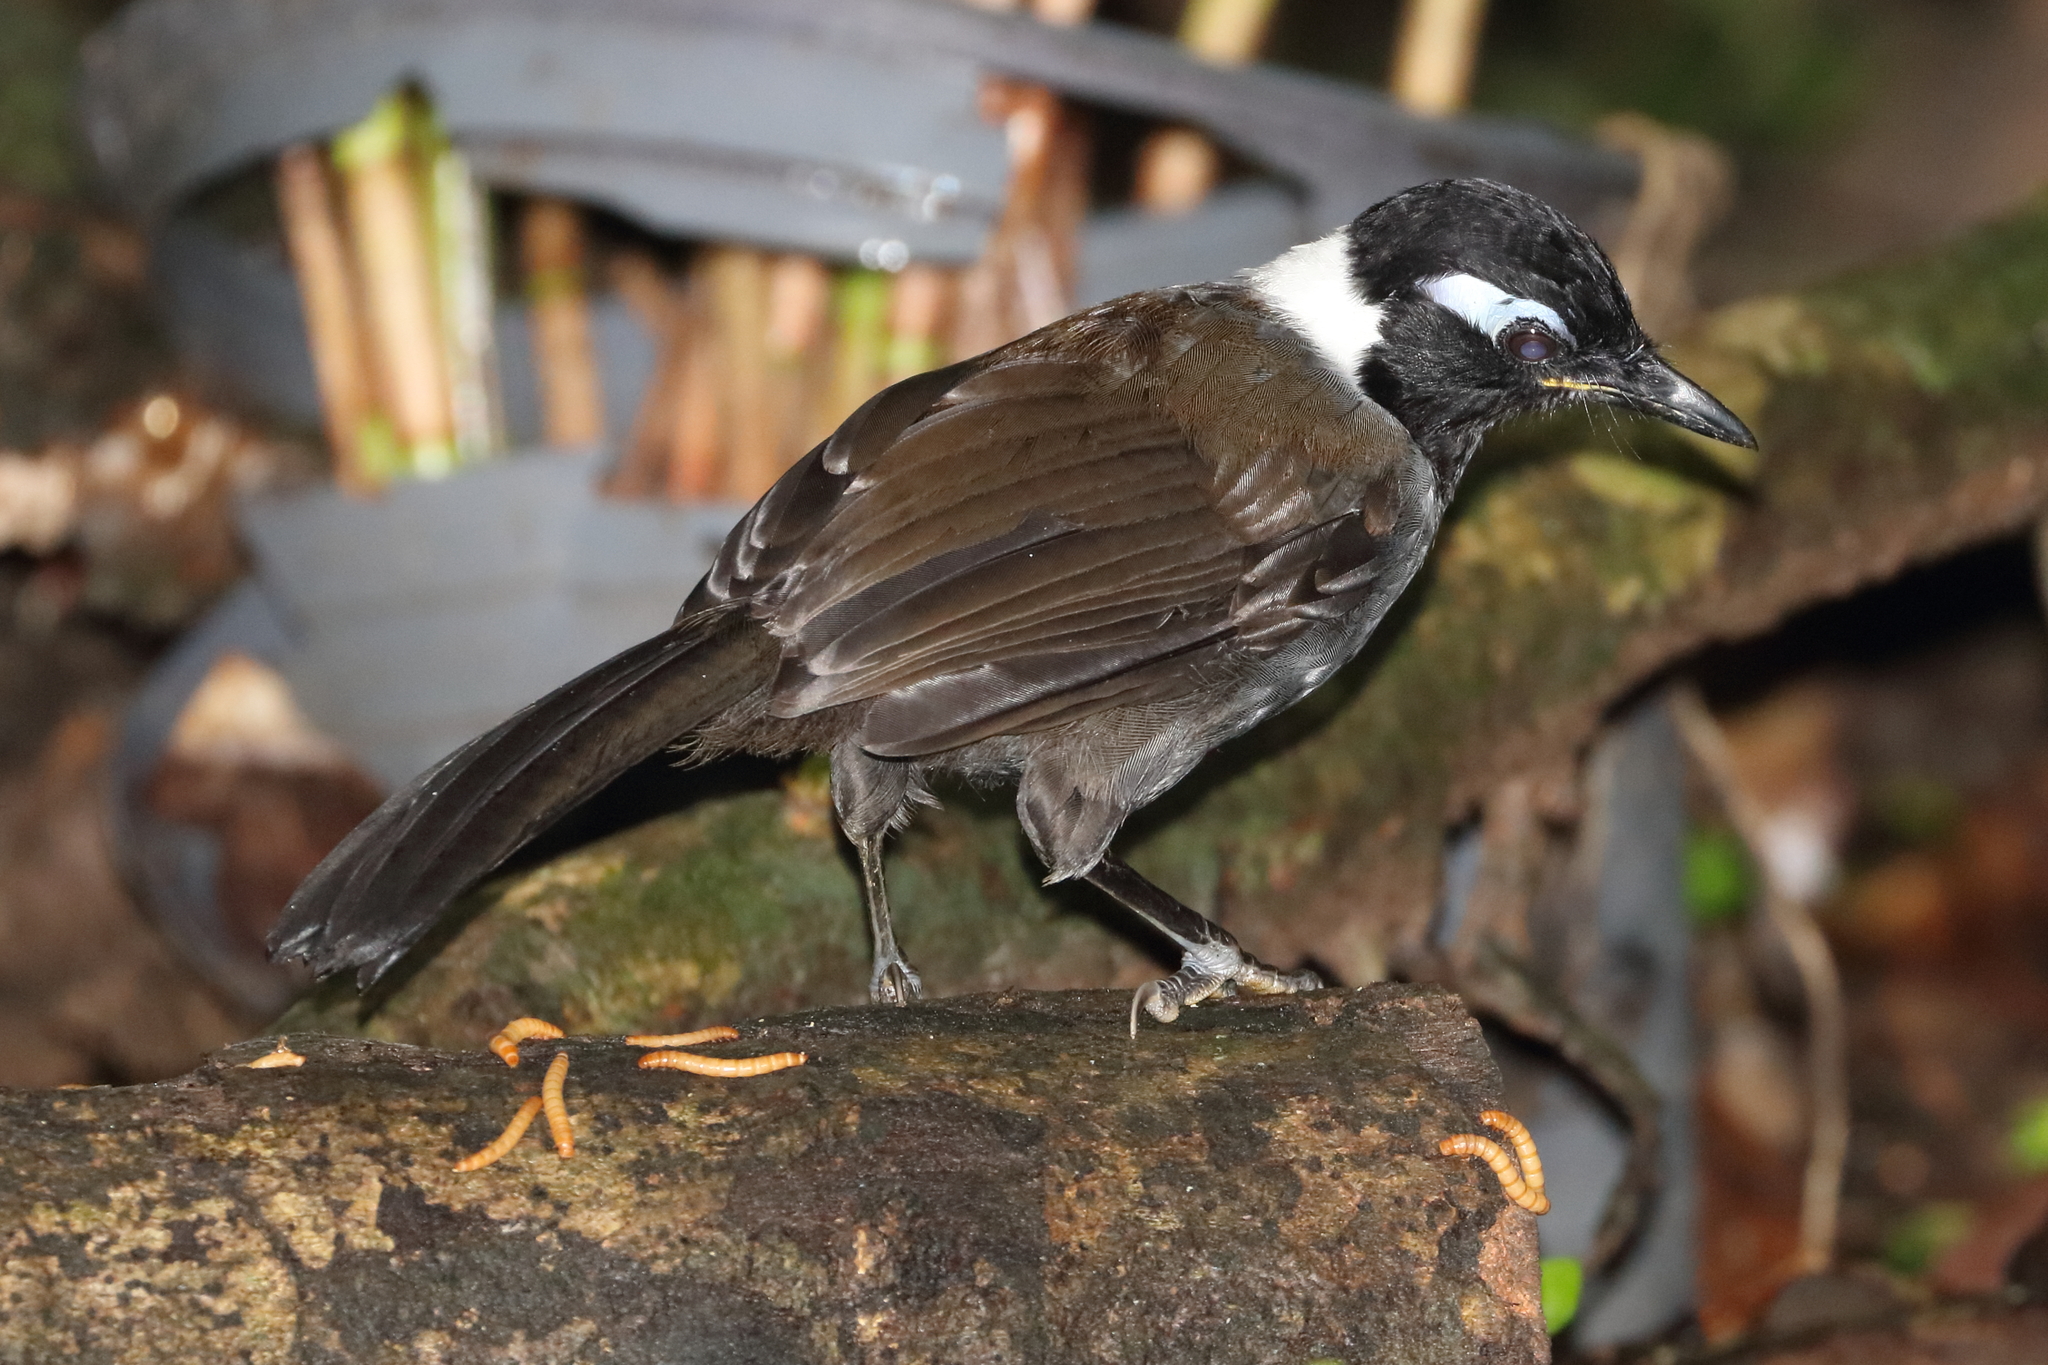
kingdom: Animalia
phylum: Chordata
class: Aves
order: Passeriformes
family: Leiothrichidae
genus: Garrulax
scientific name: Garrulax milleti
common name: Black-hooded laughingthrush
